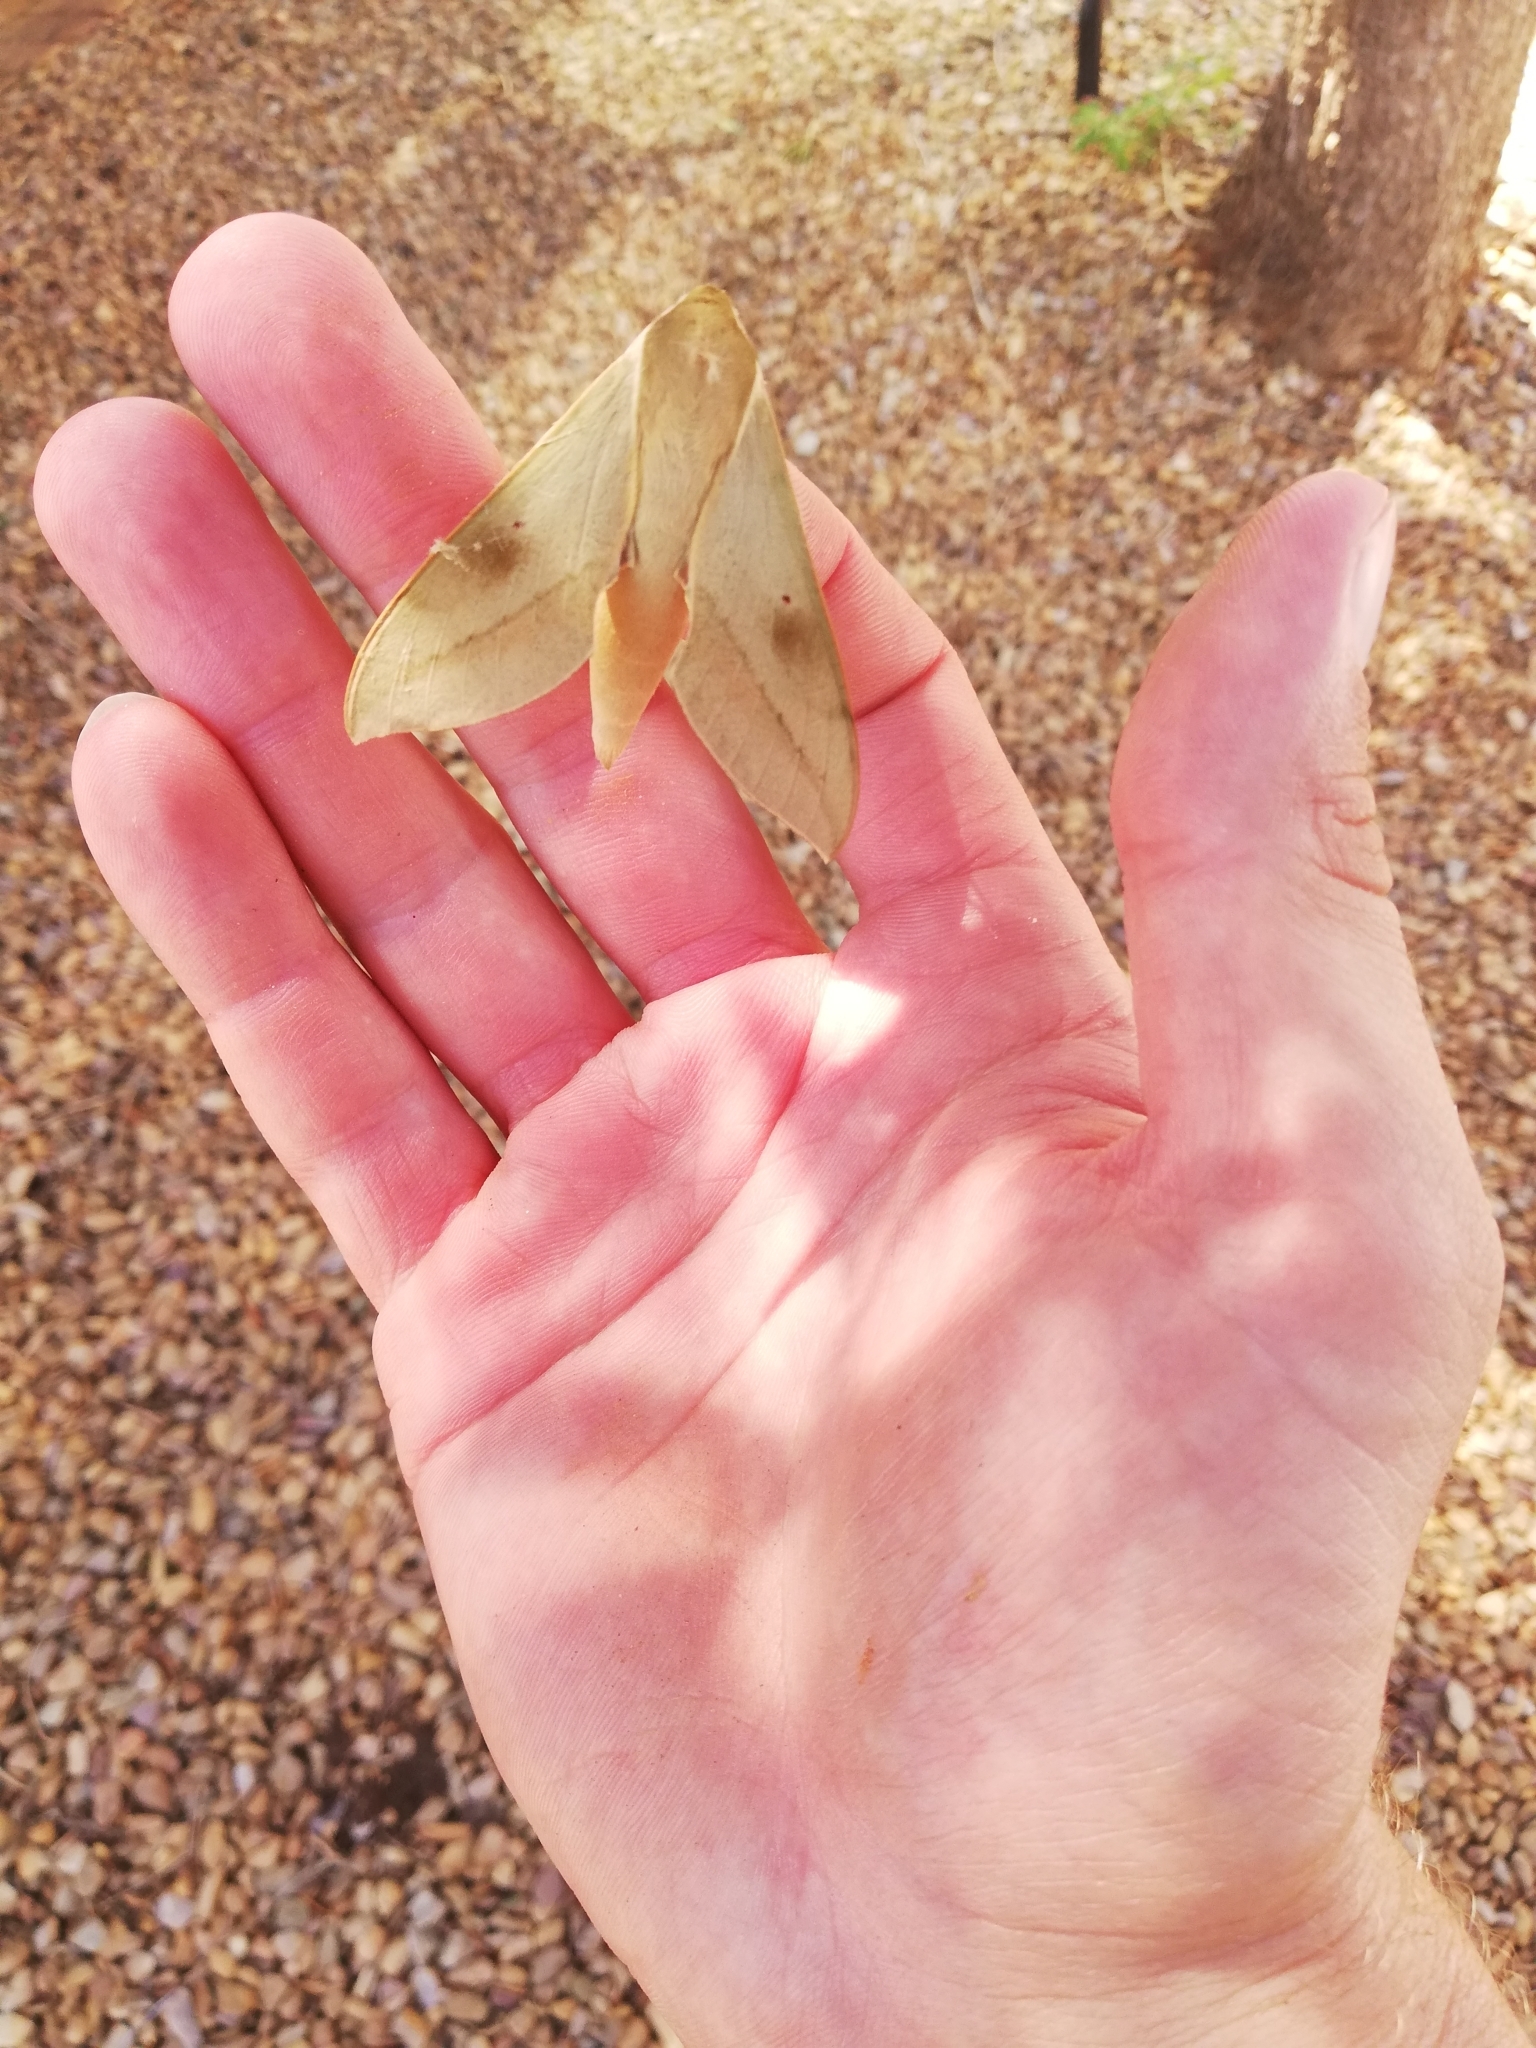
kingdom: Animalia
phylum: Arthropoda
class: Insecta
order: Lepidoptera
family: Sphingidae
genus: Theretra
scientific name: Theretra capensis
